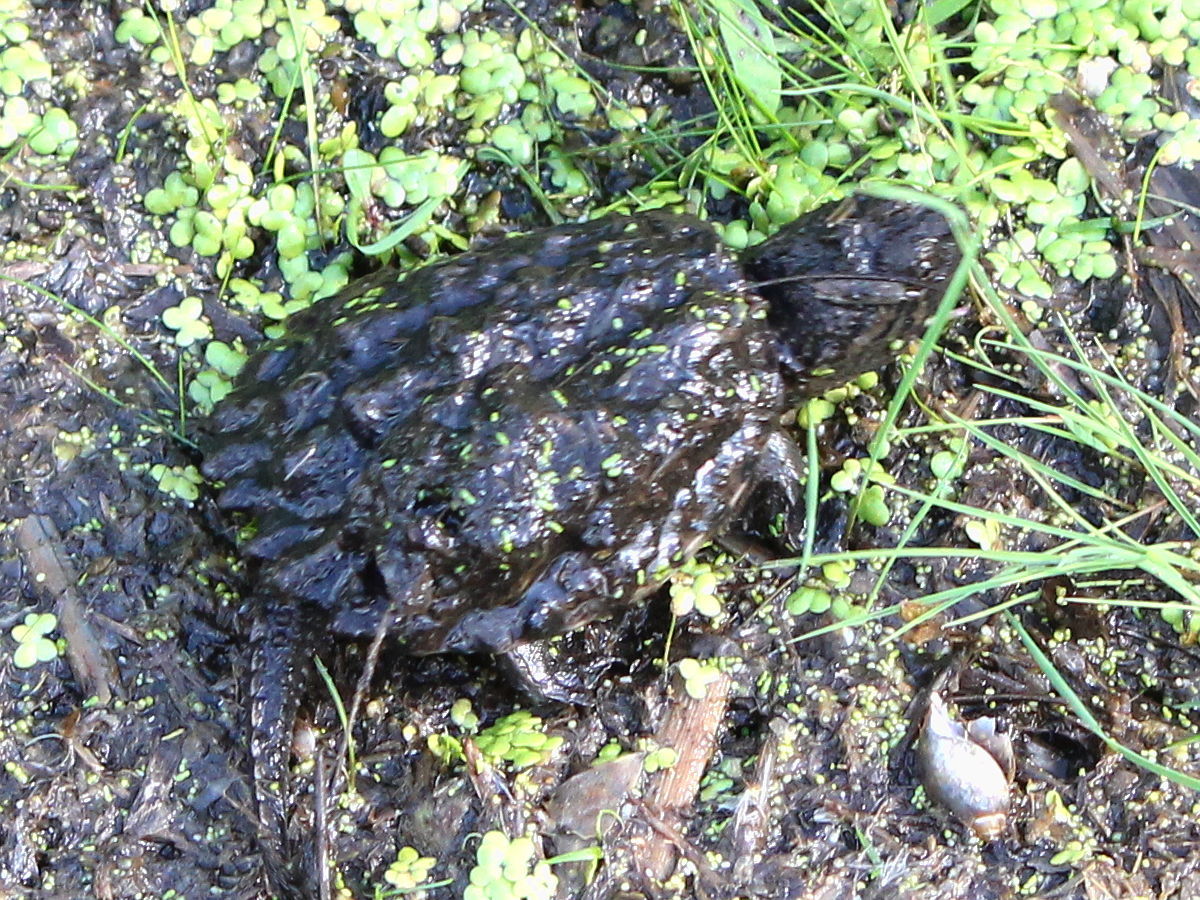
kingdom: Animalia
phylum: Chordata
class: Testudines
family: Chelydridae
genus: Chelydra
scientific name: Chelydra serpentina
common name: Common snapping turtle
